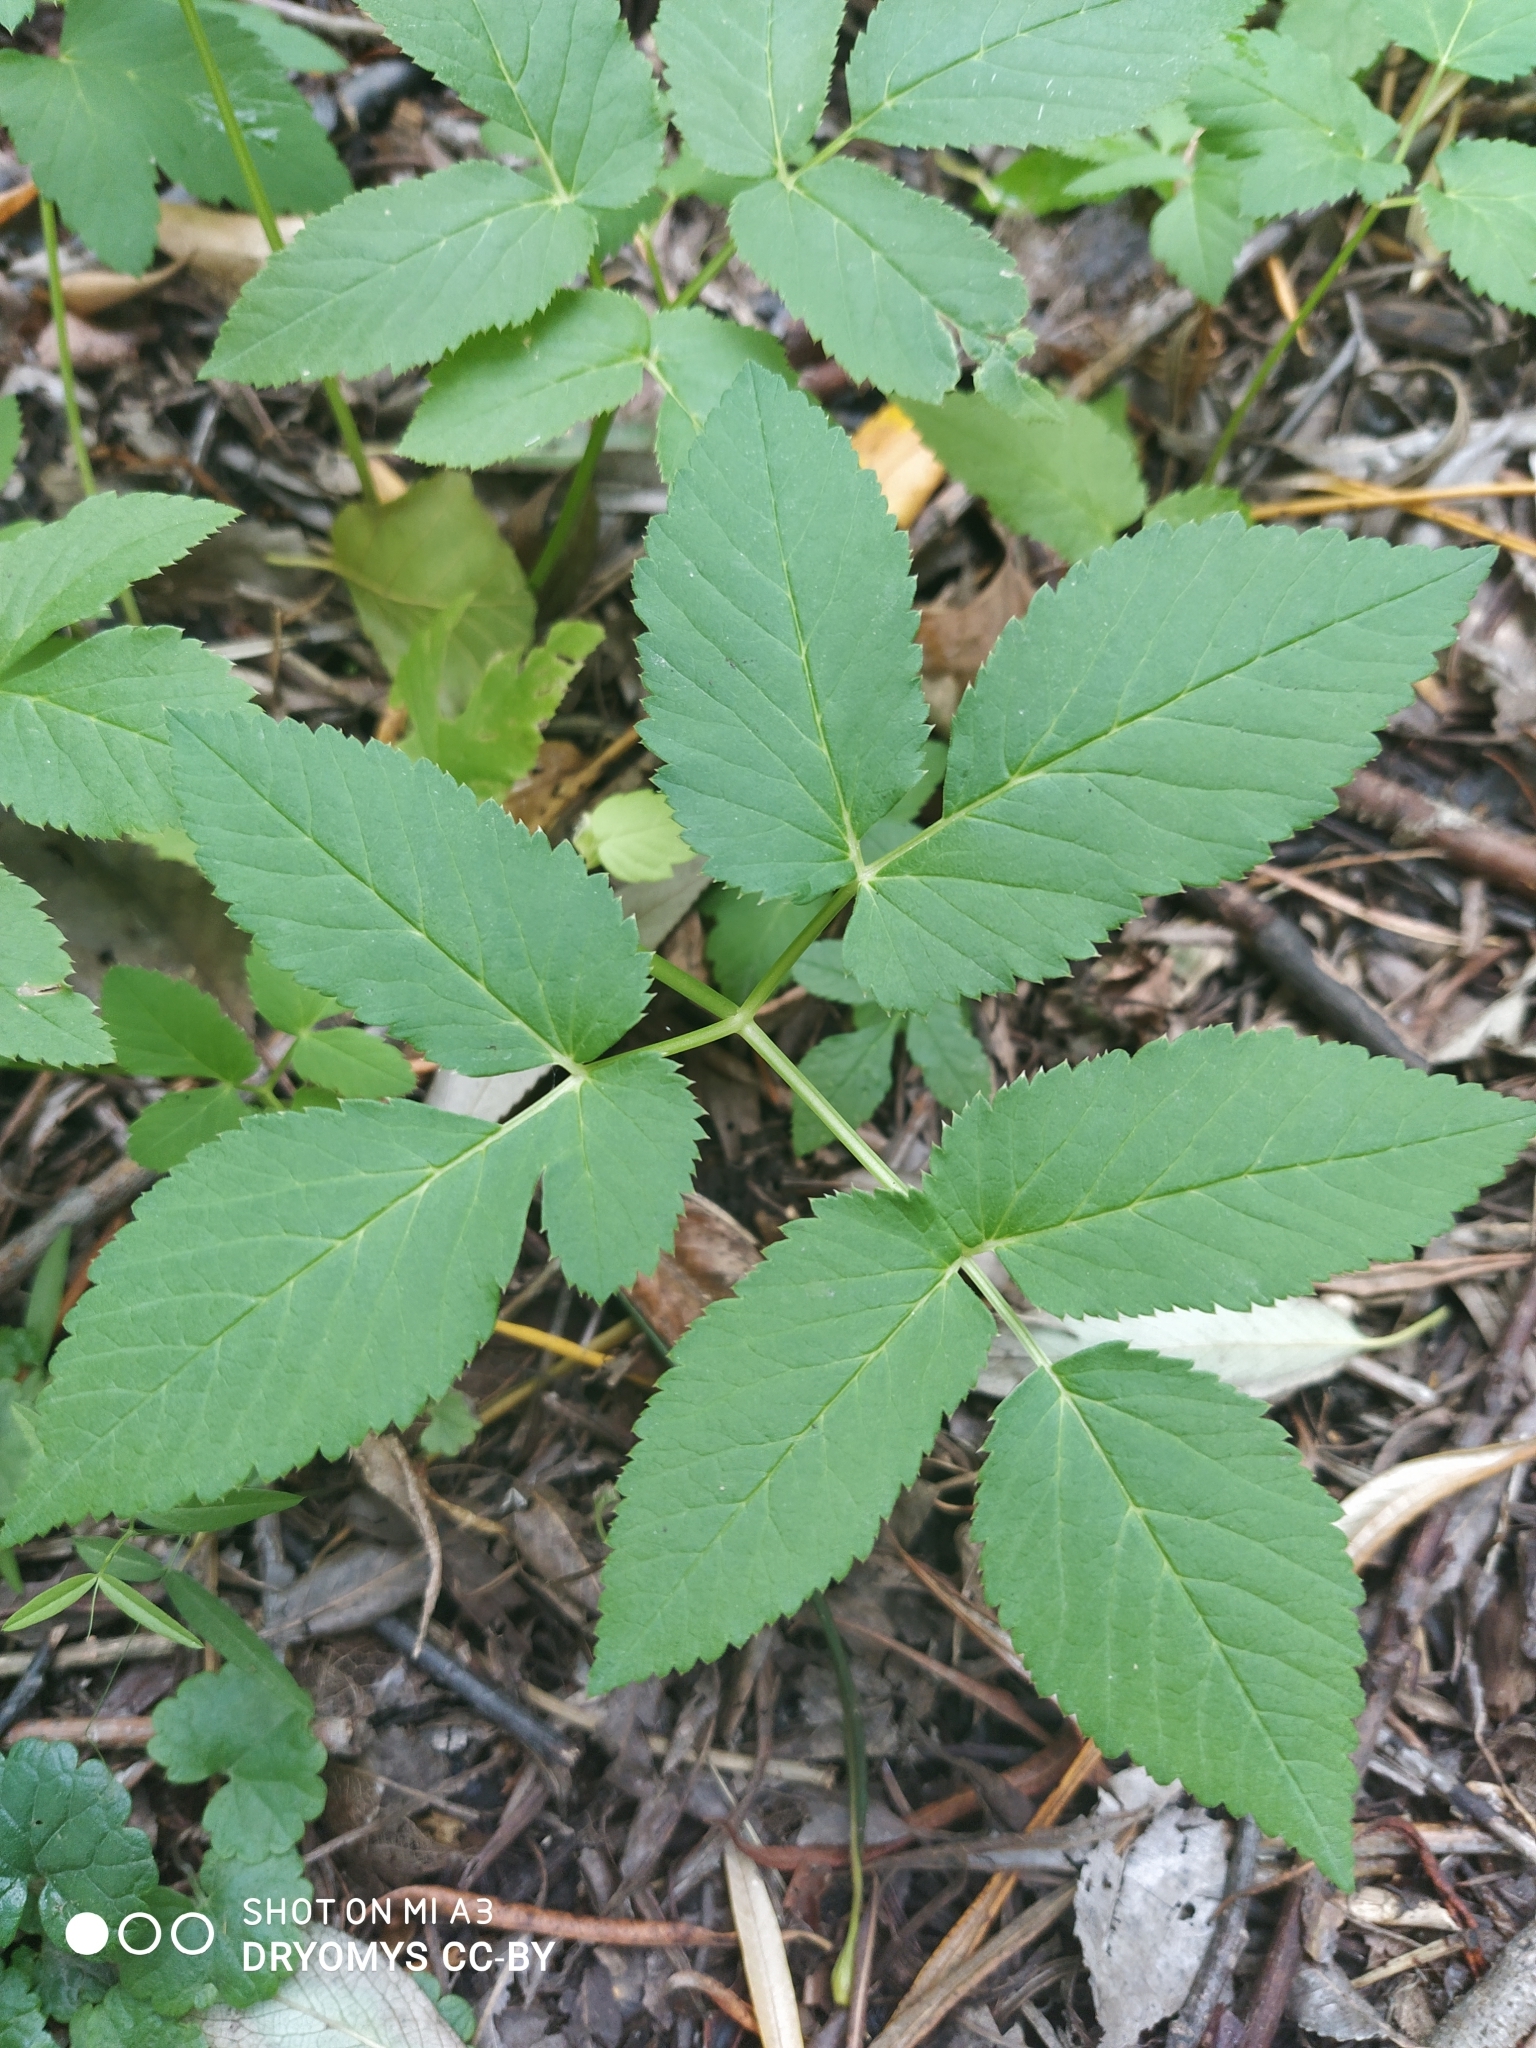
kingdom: Plantae
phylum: Tracheophyta
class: Magnoliopsida
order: Apiales
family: Apiaceae
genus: Aegopodium
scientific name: Aegopodium podagraria
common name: Ground-elder
